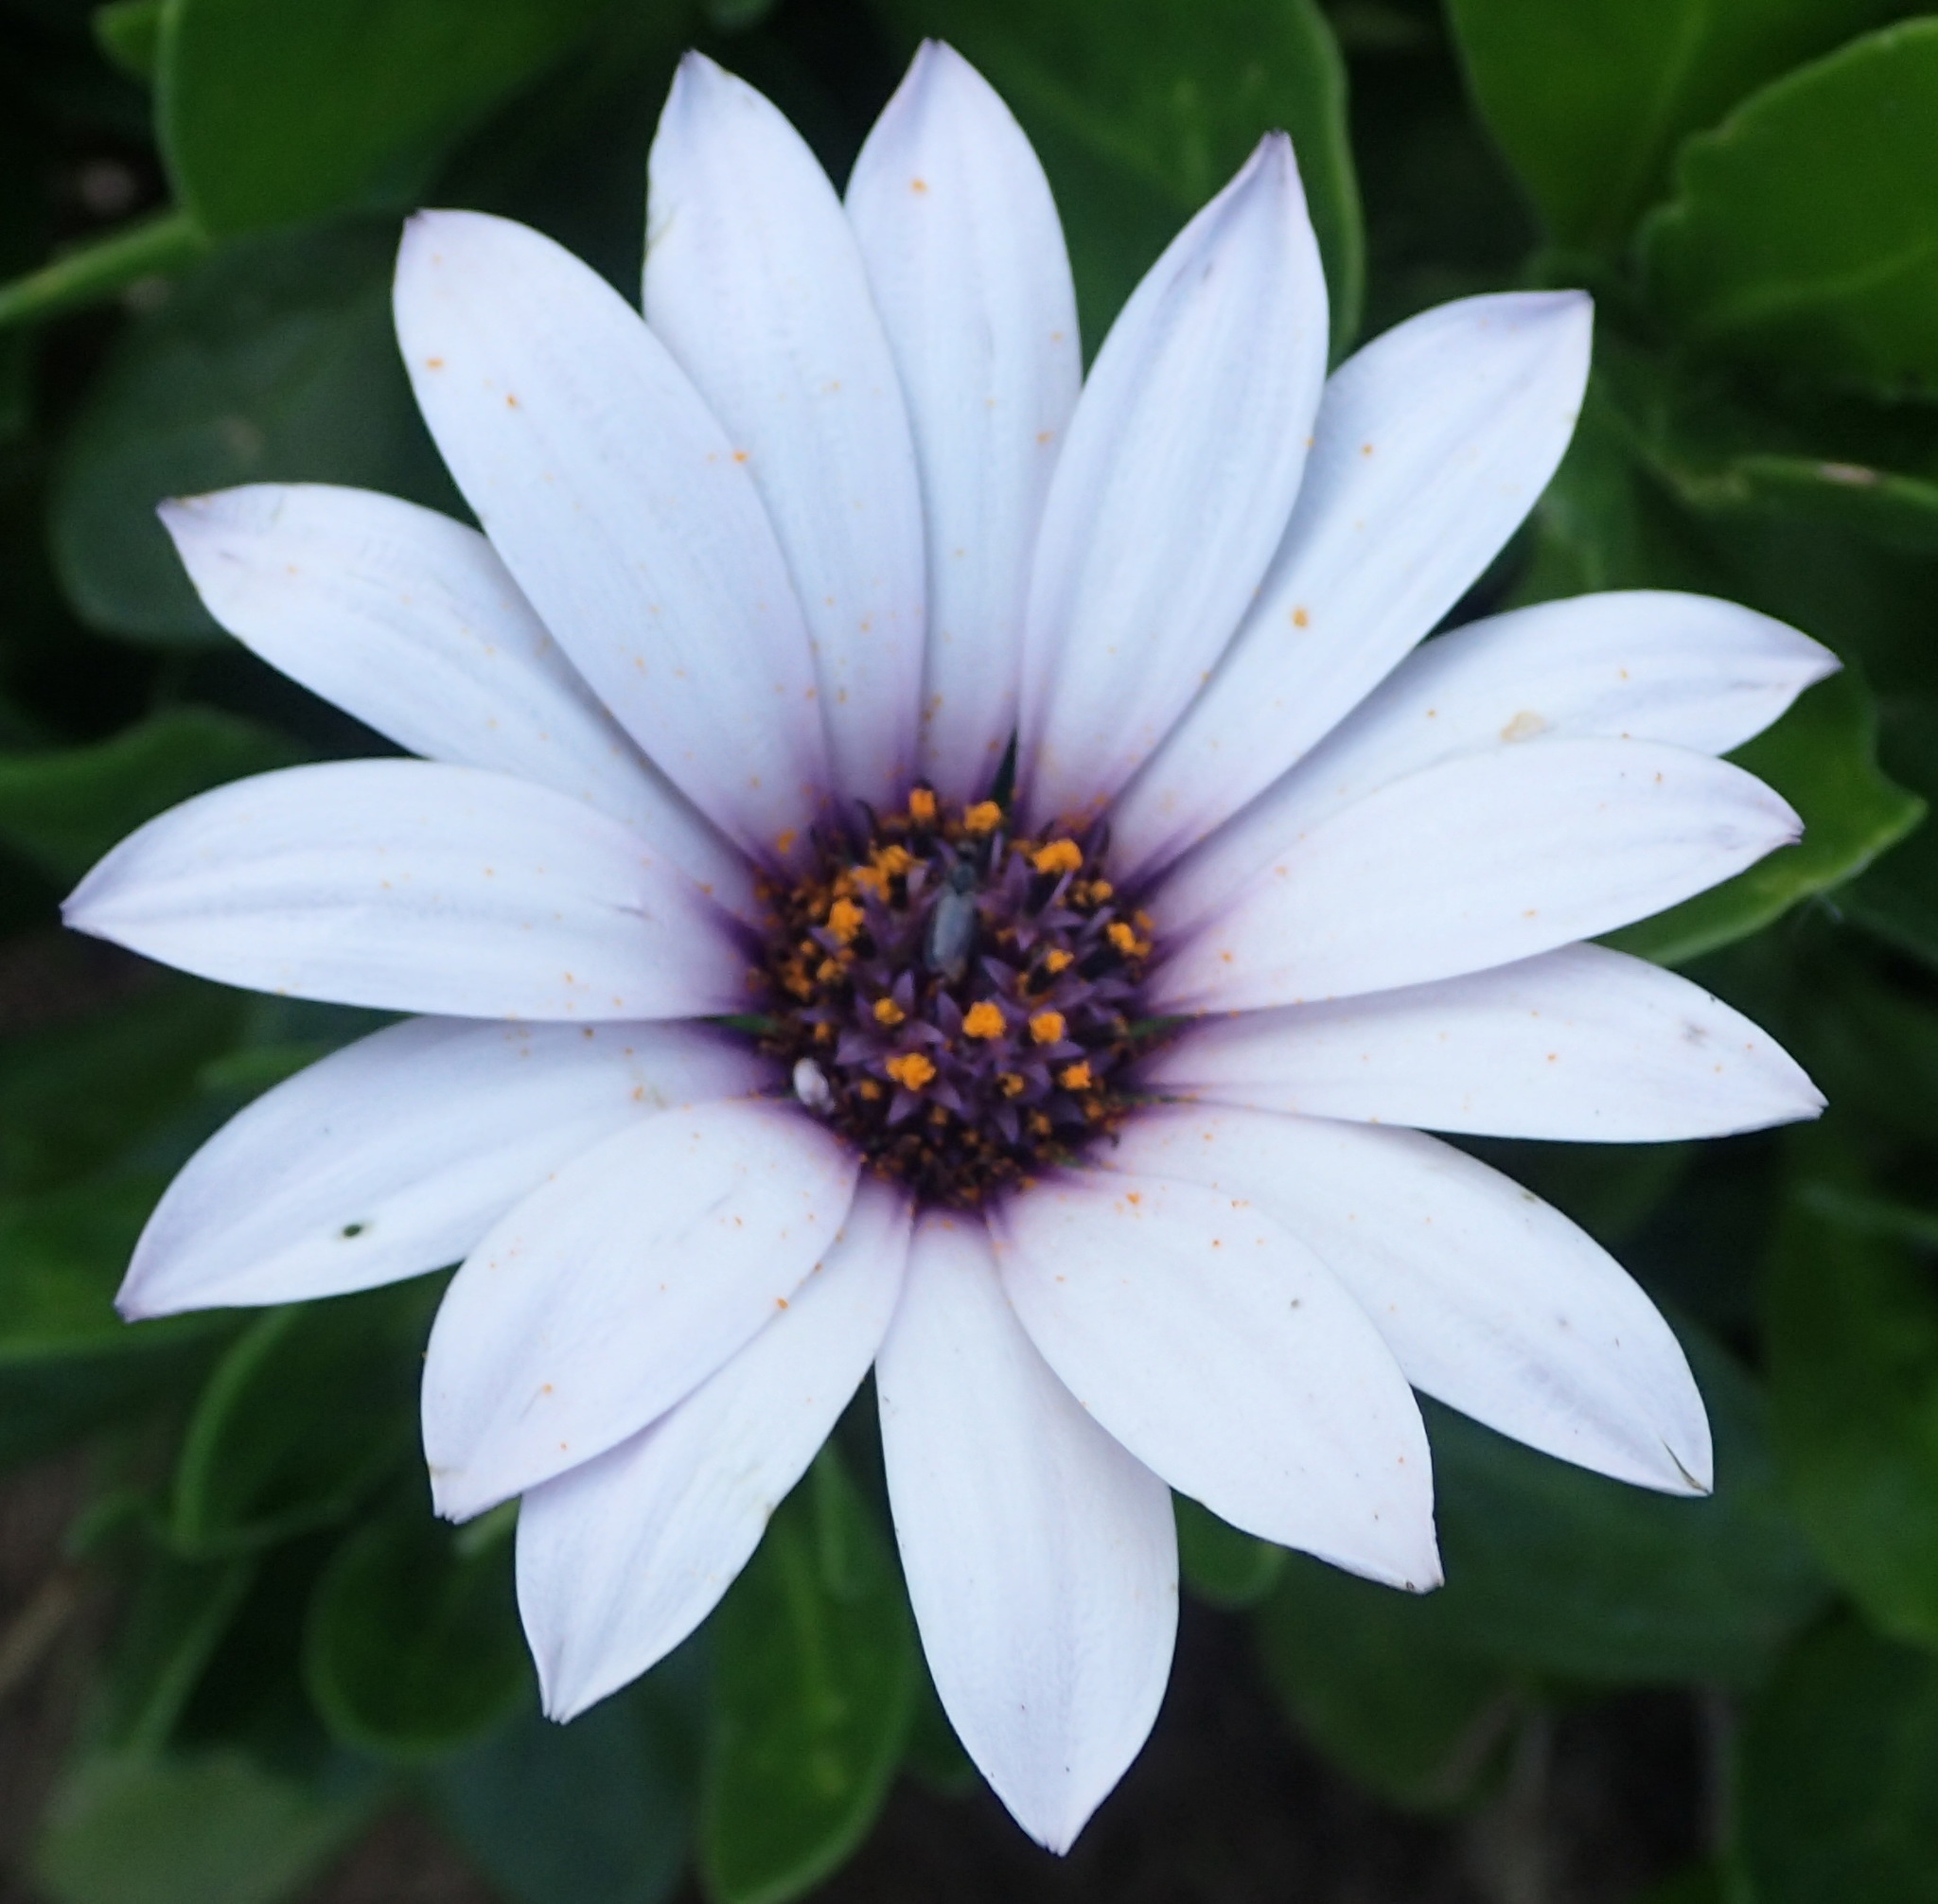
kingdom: Plantae
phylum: Tracheophyta
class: Magnoliopsida
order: Asterales
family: Asteraceae
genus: Dimorphotheca
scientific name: Dimorphotheca fruticosa
